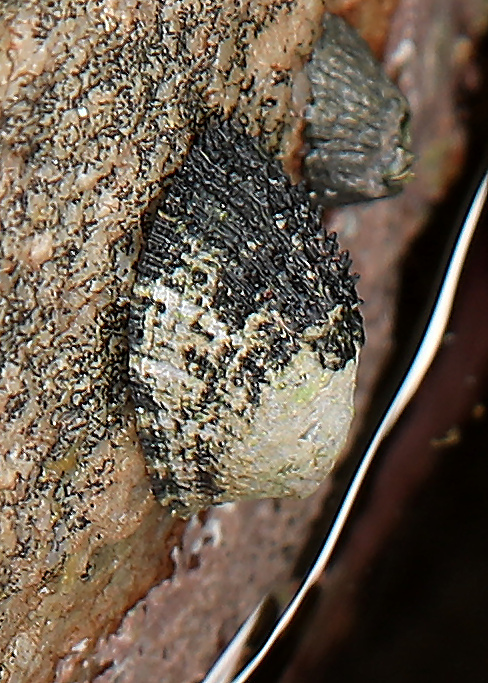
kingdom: Animalia
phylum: Mollusca
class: Gastropoda
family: Patellidae
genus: Helcion
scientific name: Helcion pectunculus
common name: Prickly limpet
